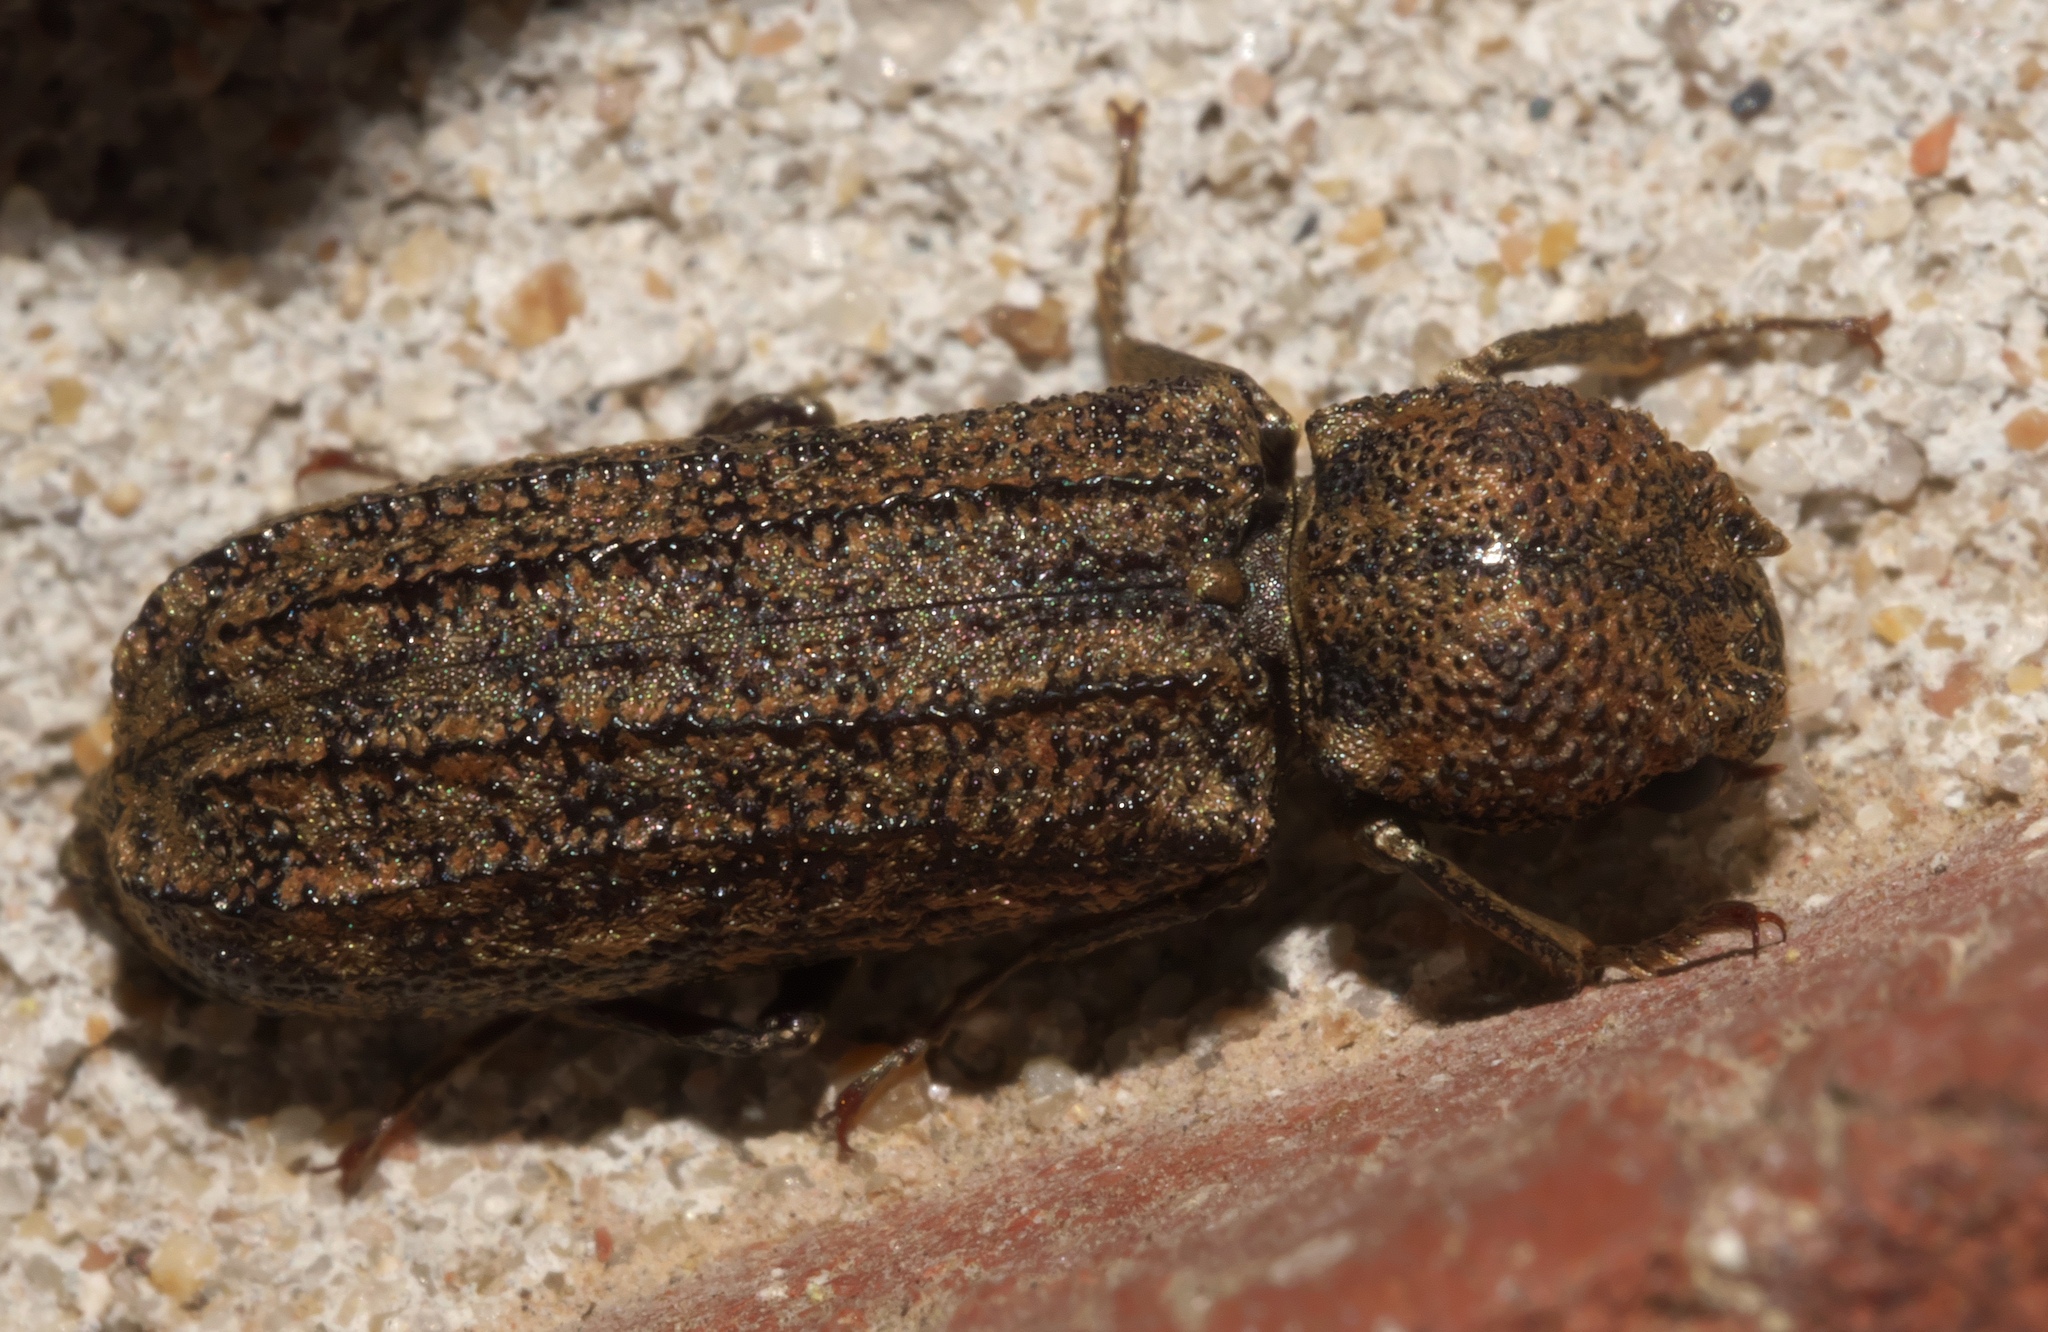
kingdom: Animalia
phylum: Arthropoda
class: Insecta
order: Coleoptera
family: Bostrichidae
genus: Lichenophanes
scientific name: Lichenophanes bicornis
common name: Two-horned powder-post beetle
